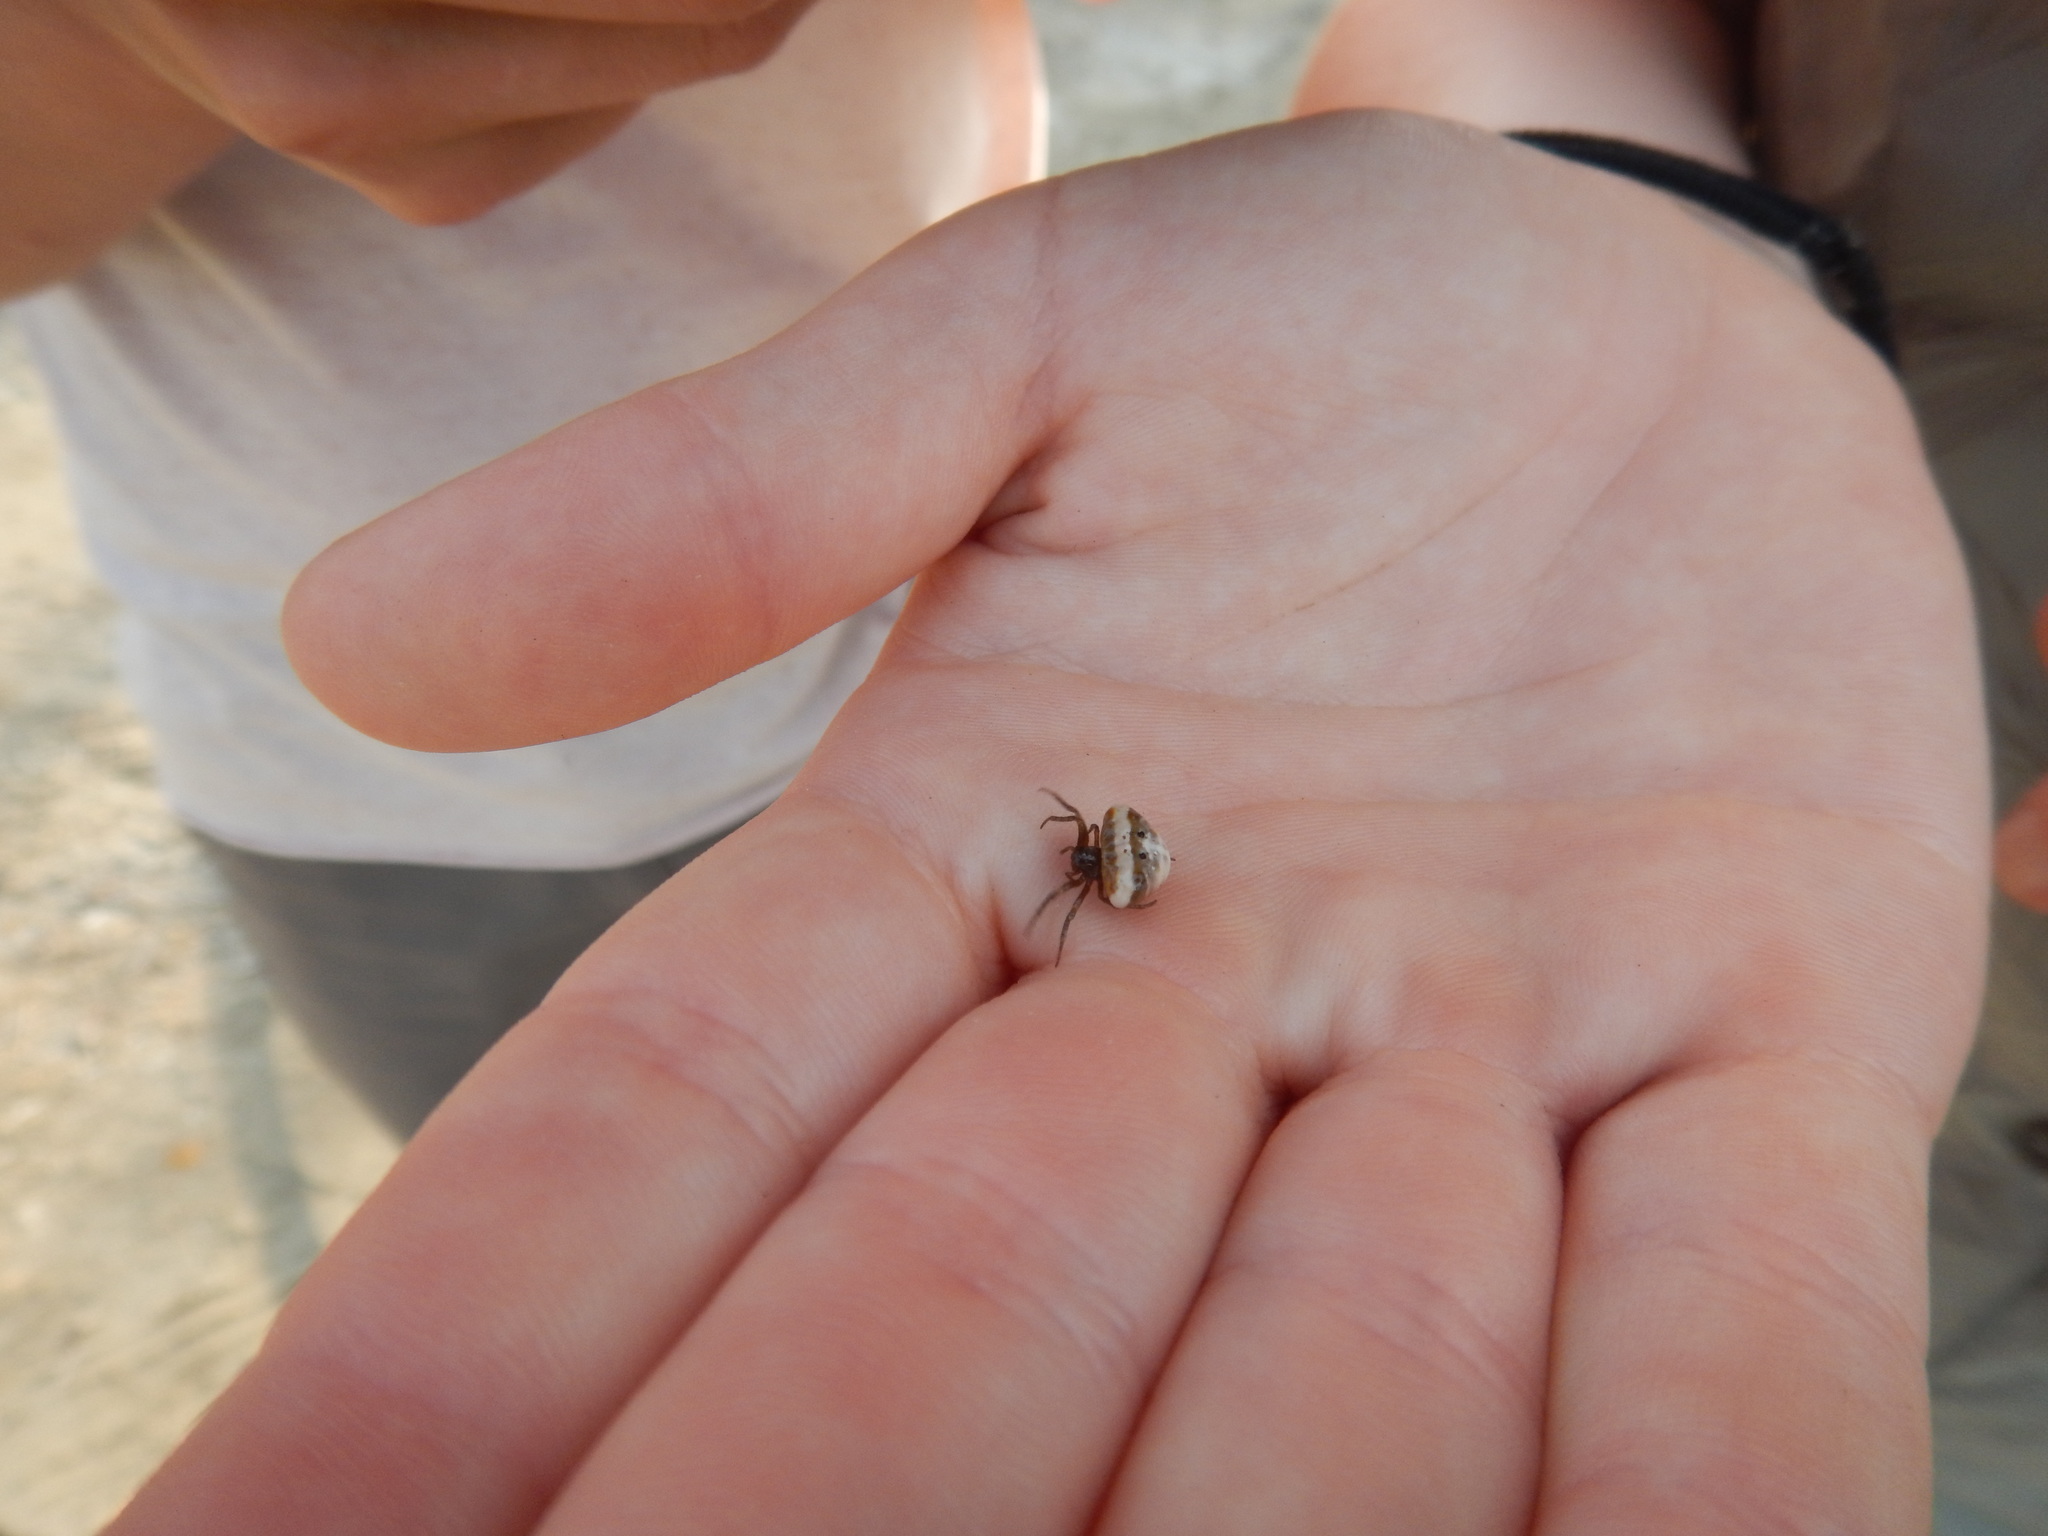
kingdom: Animalia
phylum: Arthropoda
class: Arachnida
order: Araneae
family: Araneidae
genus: Cyrtarachne
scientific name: Cyrtarachne ixoides
